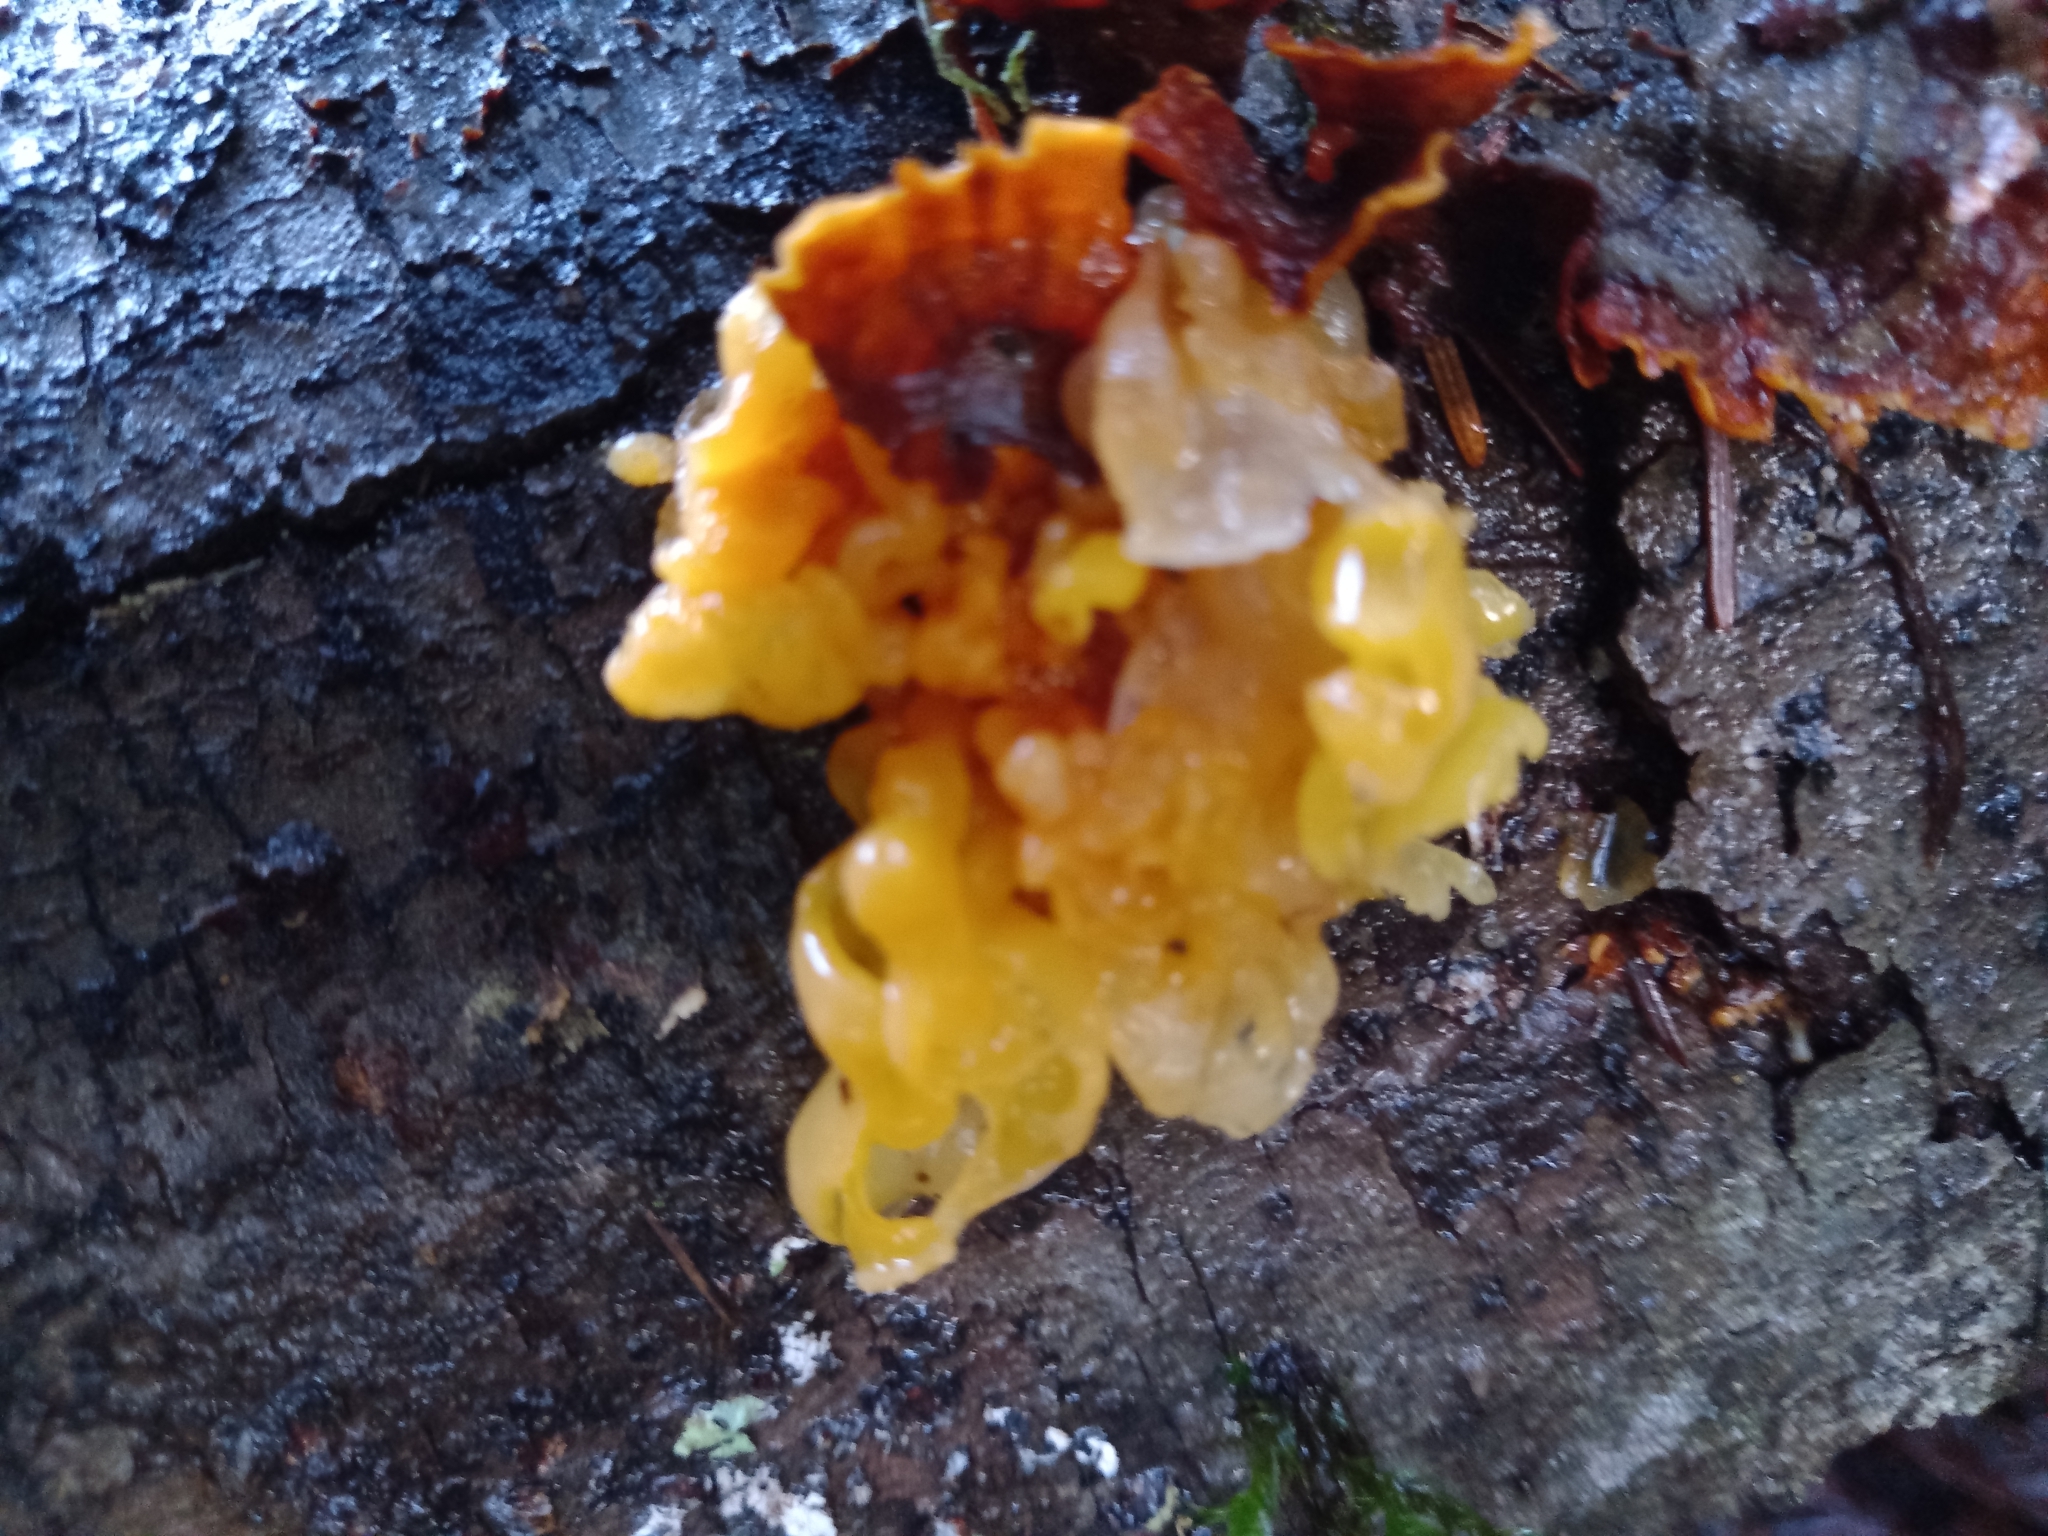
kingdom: Fungi
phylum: Basidiomycota
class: Tremellomycetes
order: Tremellales
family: Naemateliaceae
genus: Naematelia
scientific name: Naematelia aurantia
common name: Golden ear
